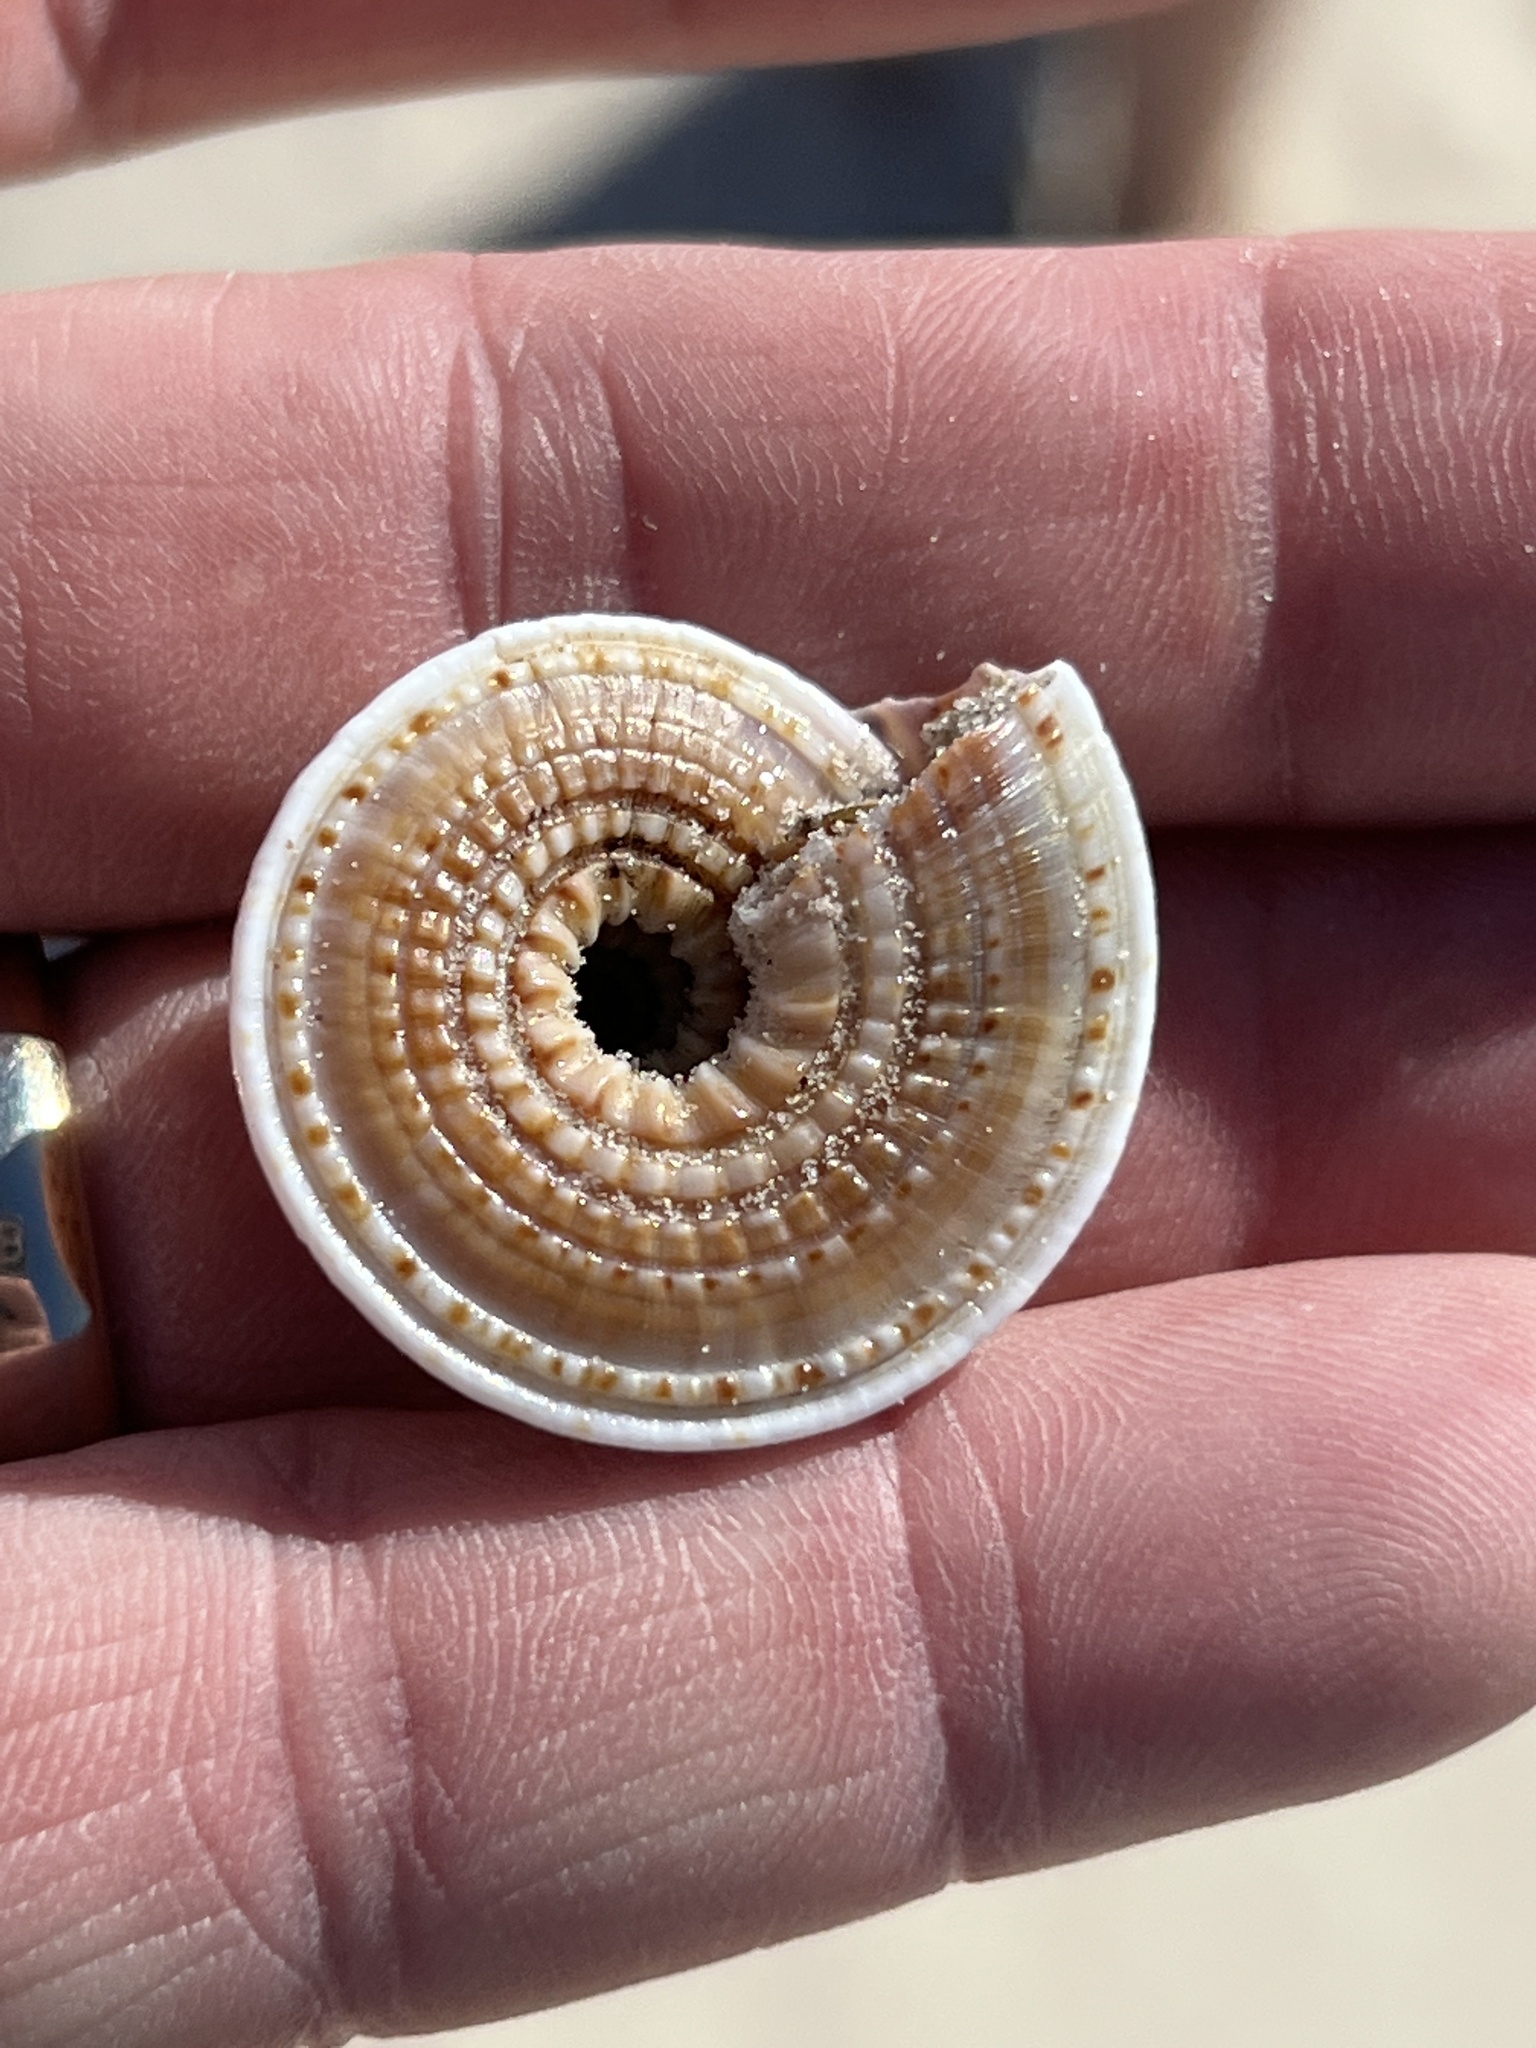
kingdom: Animalia
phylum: Mollusca
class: Gastropoda
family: Architectonicidae
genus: Architectonica
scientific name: Architectonica nobilis
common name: Common sundial
